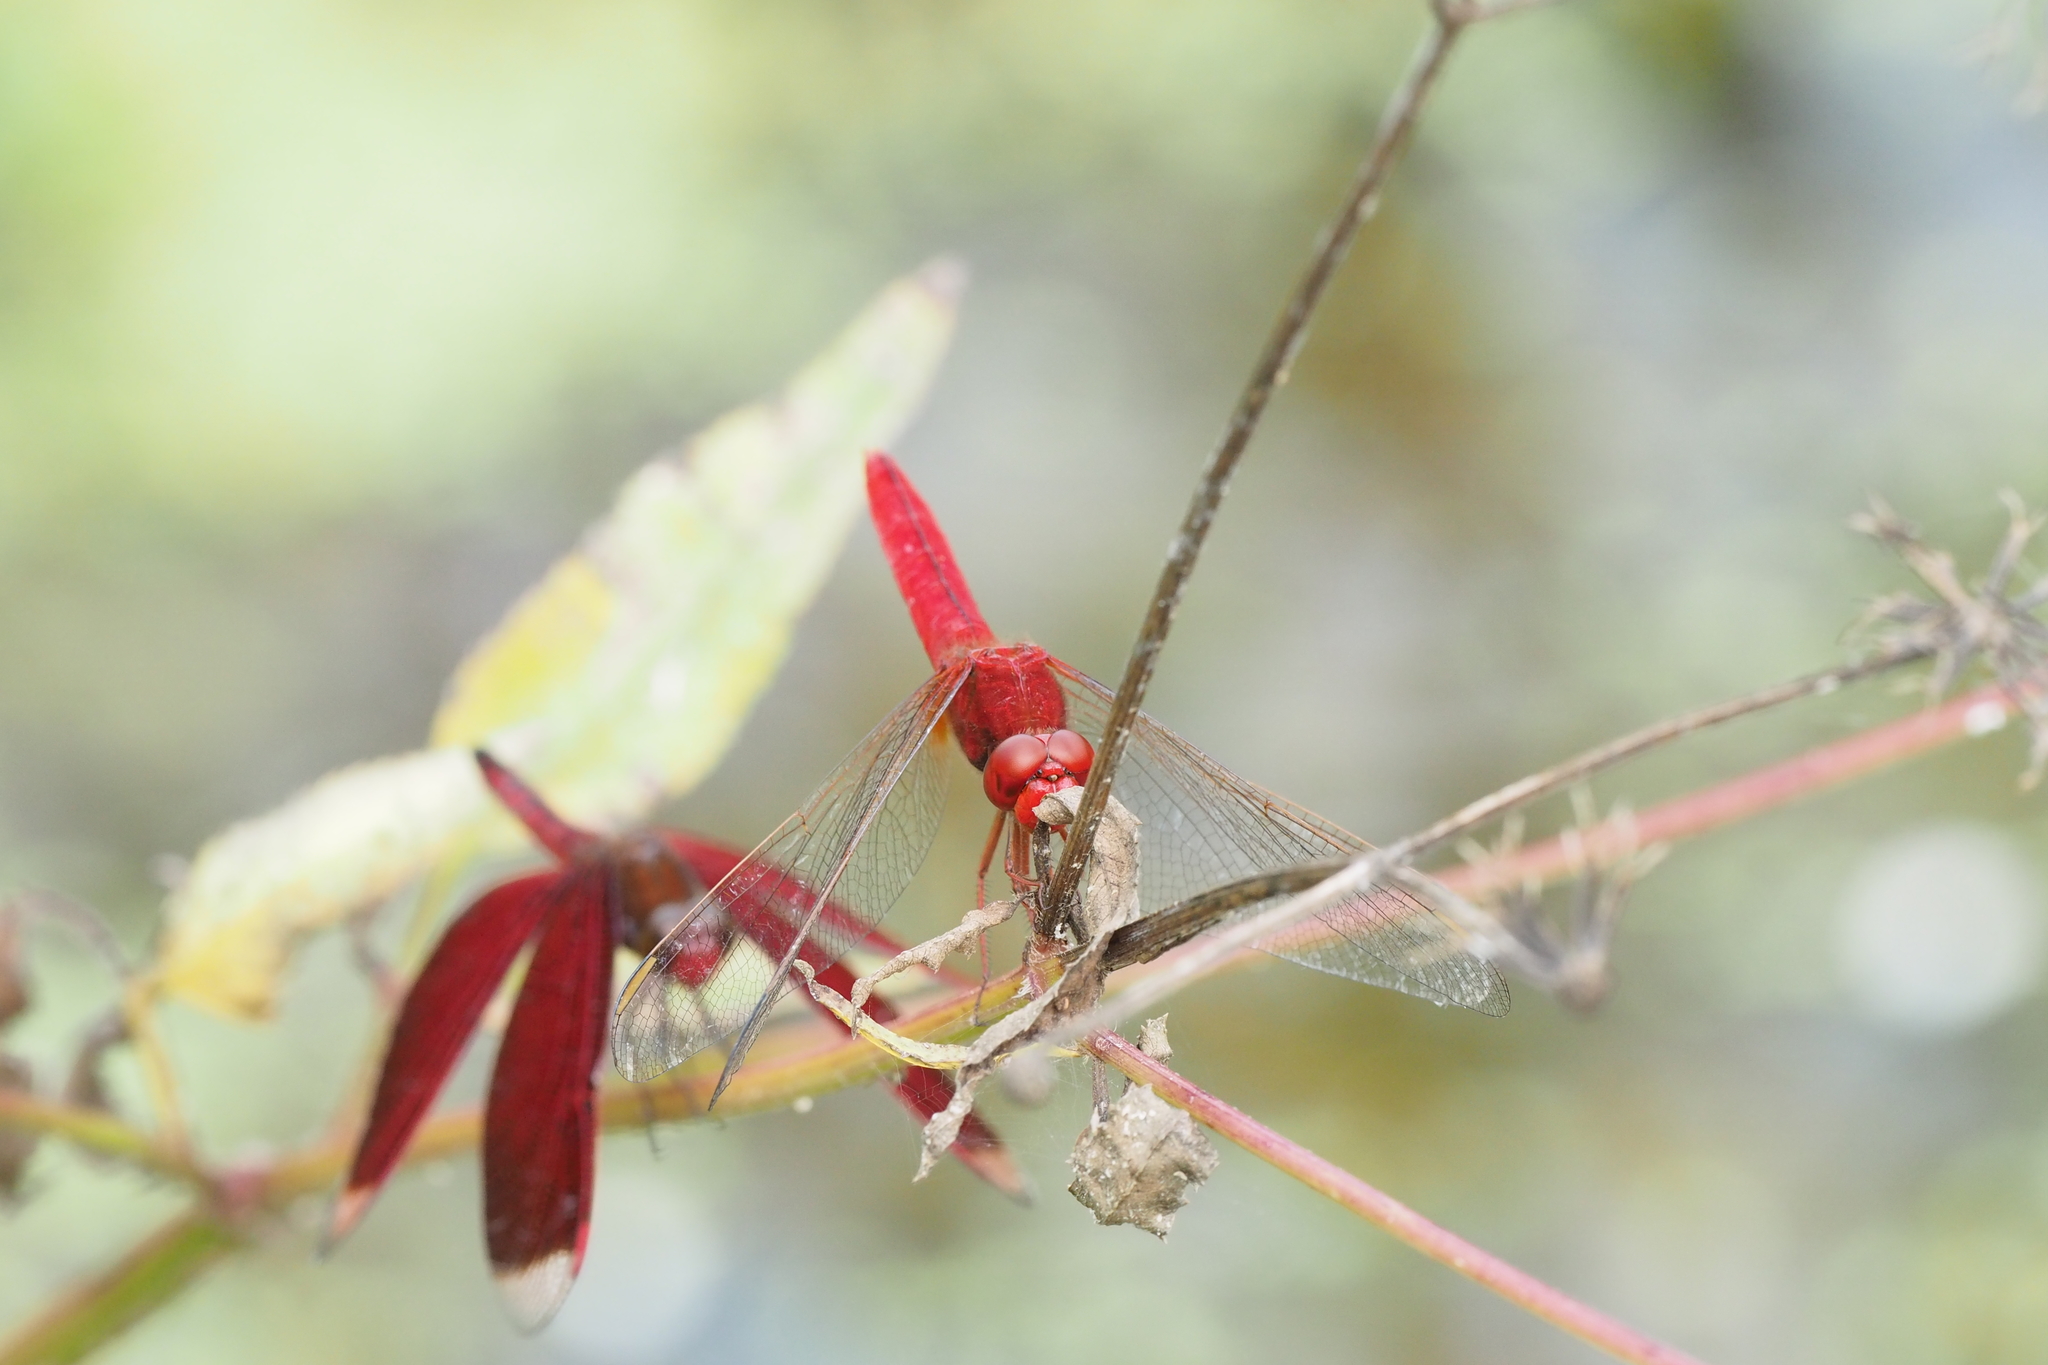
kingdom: Animalia
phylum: Arthropoda
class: Insecta
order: Odonata
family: Libellulidae
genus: Crocothemis
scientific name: Crocothemis servilia
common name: Scarlet skimmer
